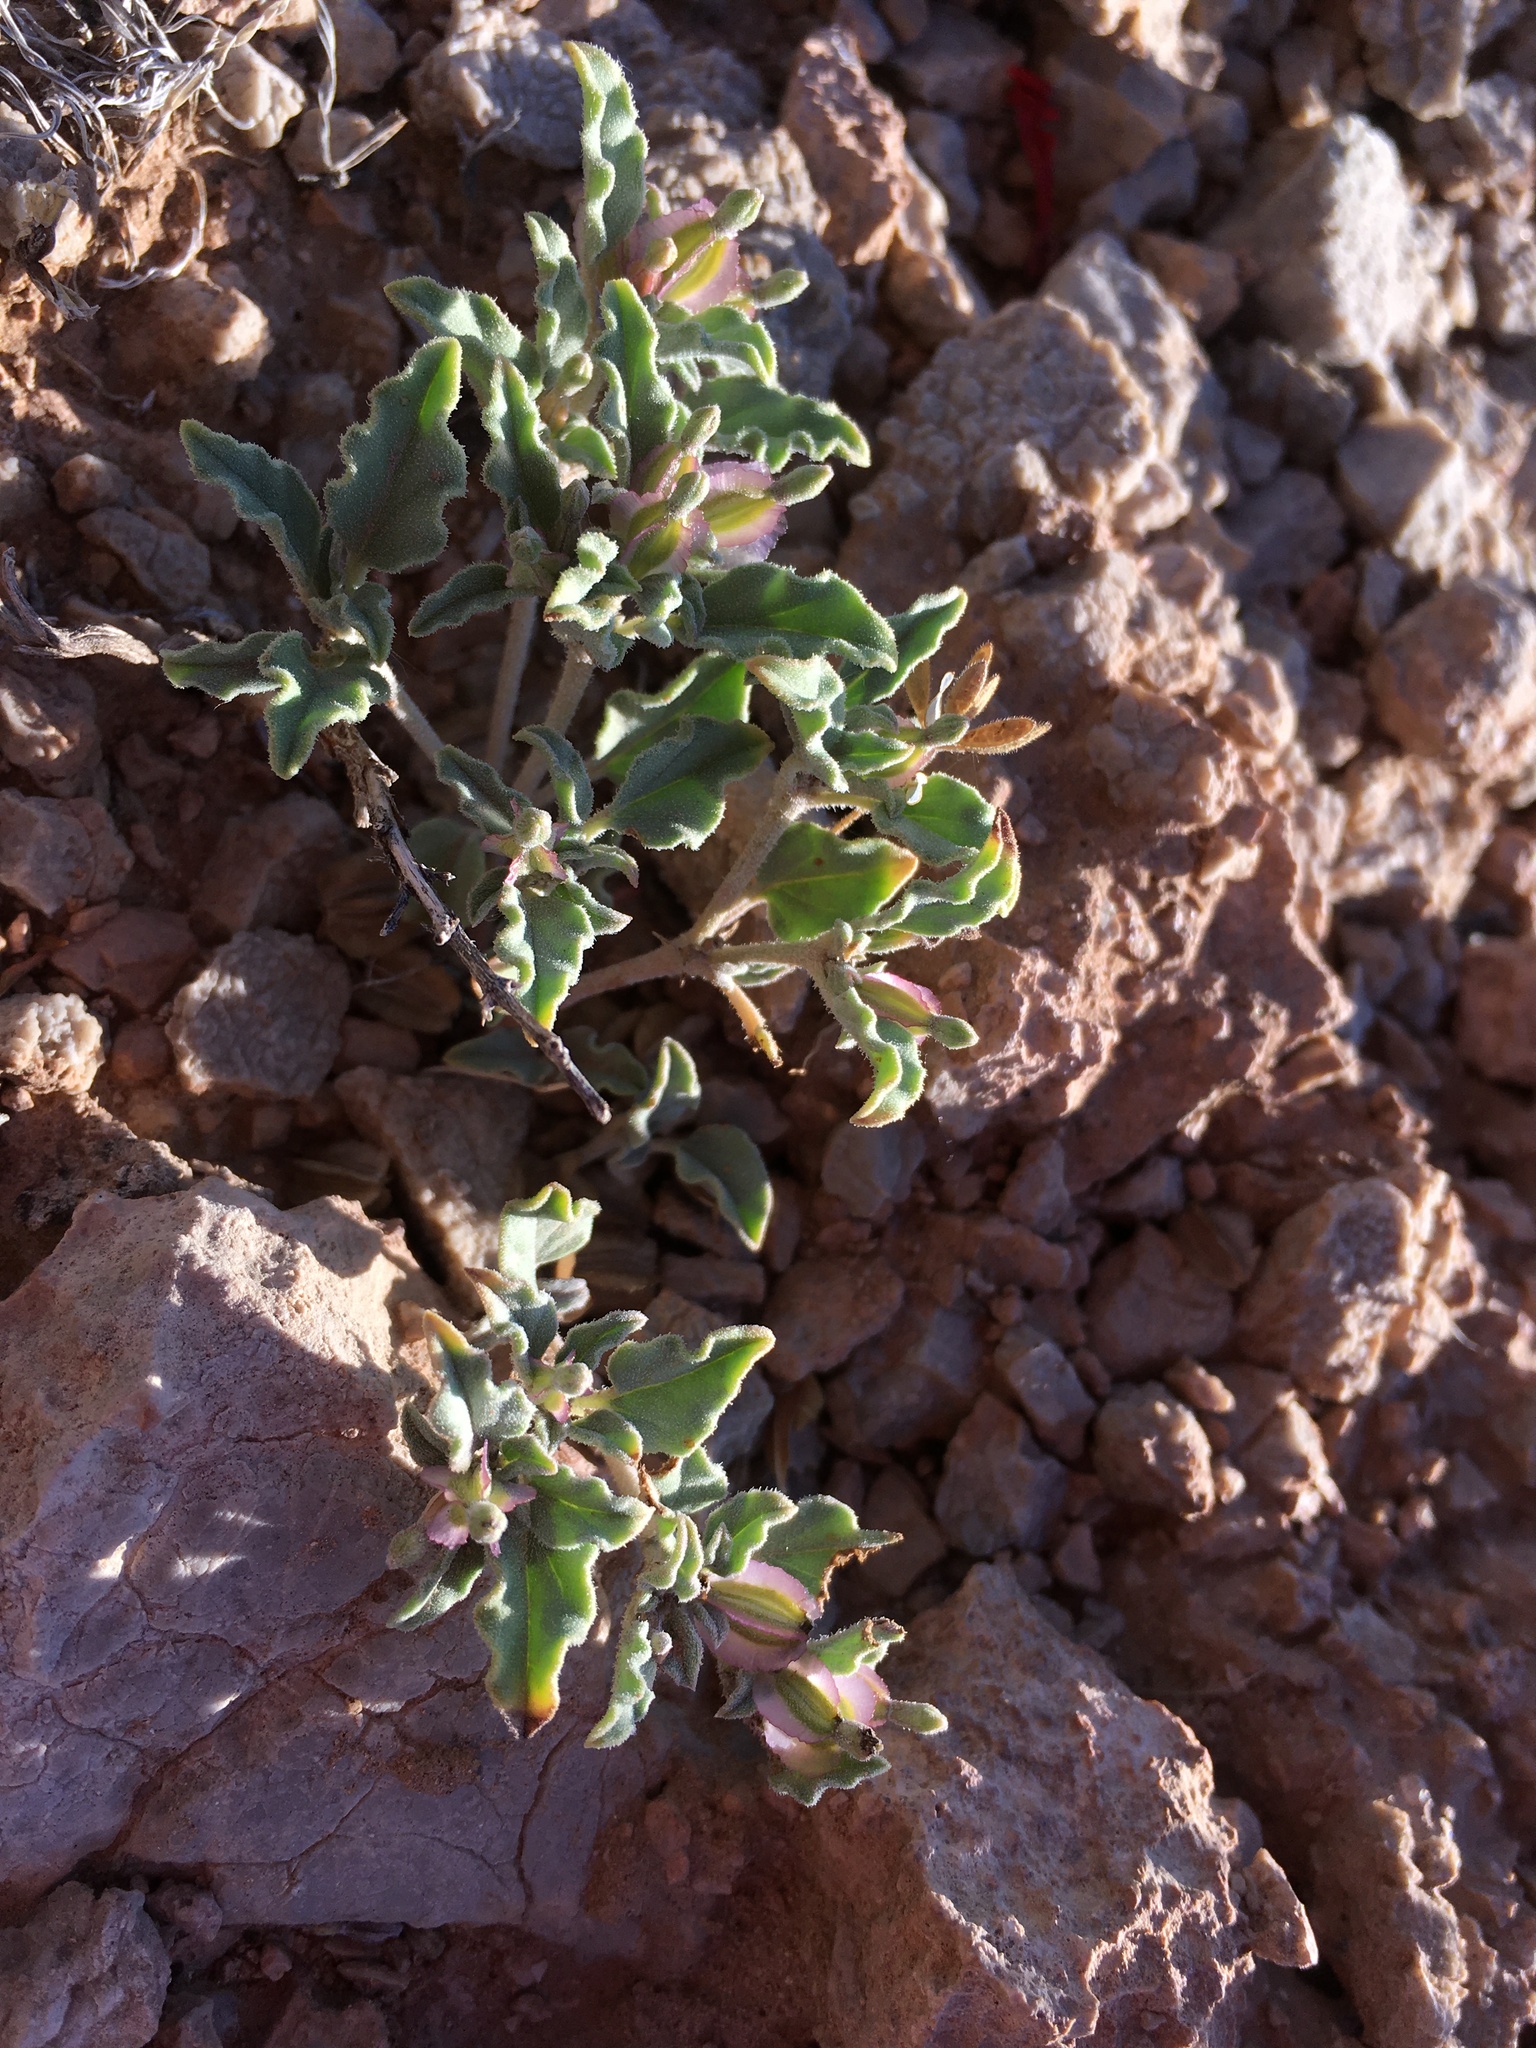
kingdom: Plantae
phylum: Tracheophyta
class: Magnoliopsida
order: Caryophyllales
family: Nyctaginaceae
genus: Acleisanthes
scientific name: Acleisanthes diffusa
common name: Spreading moonpod
